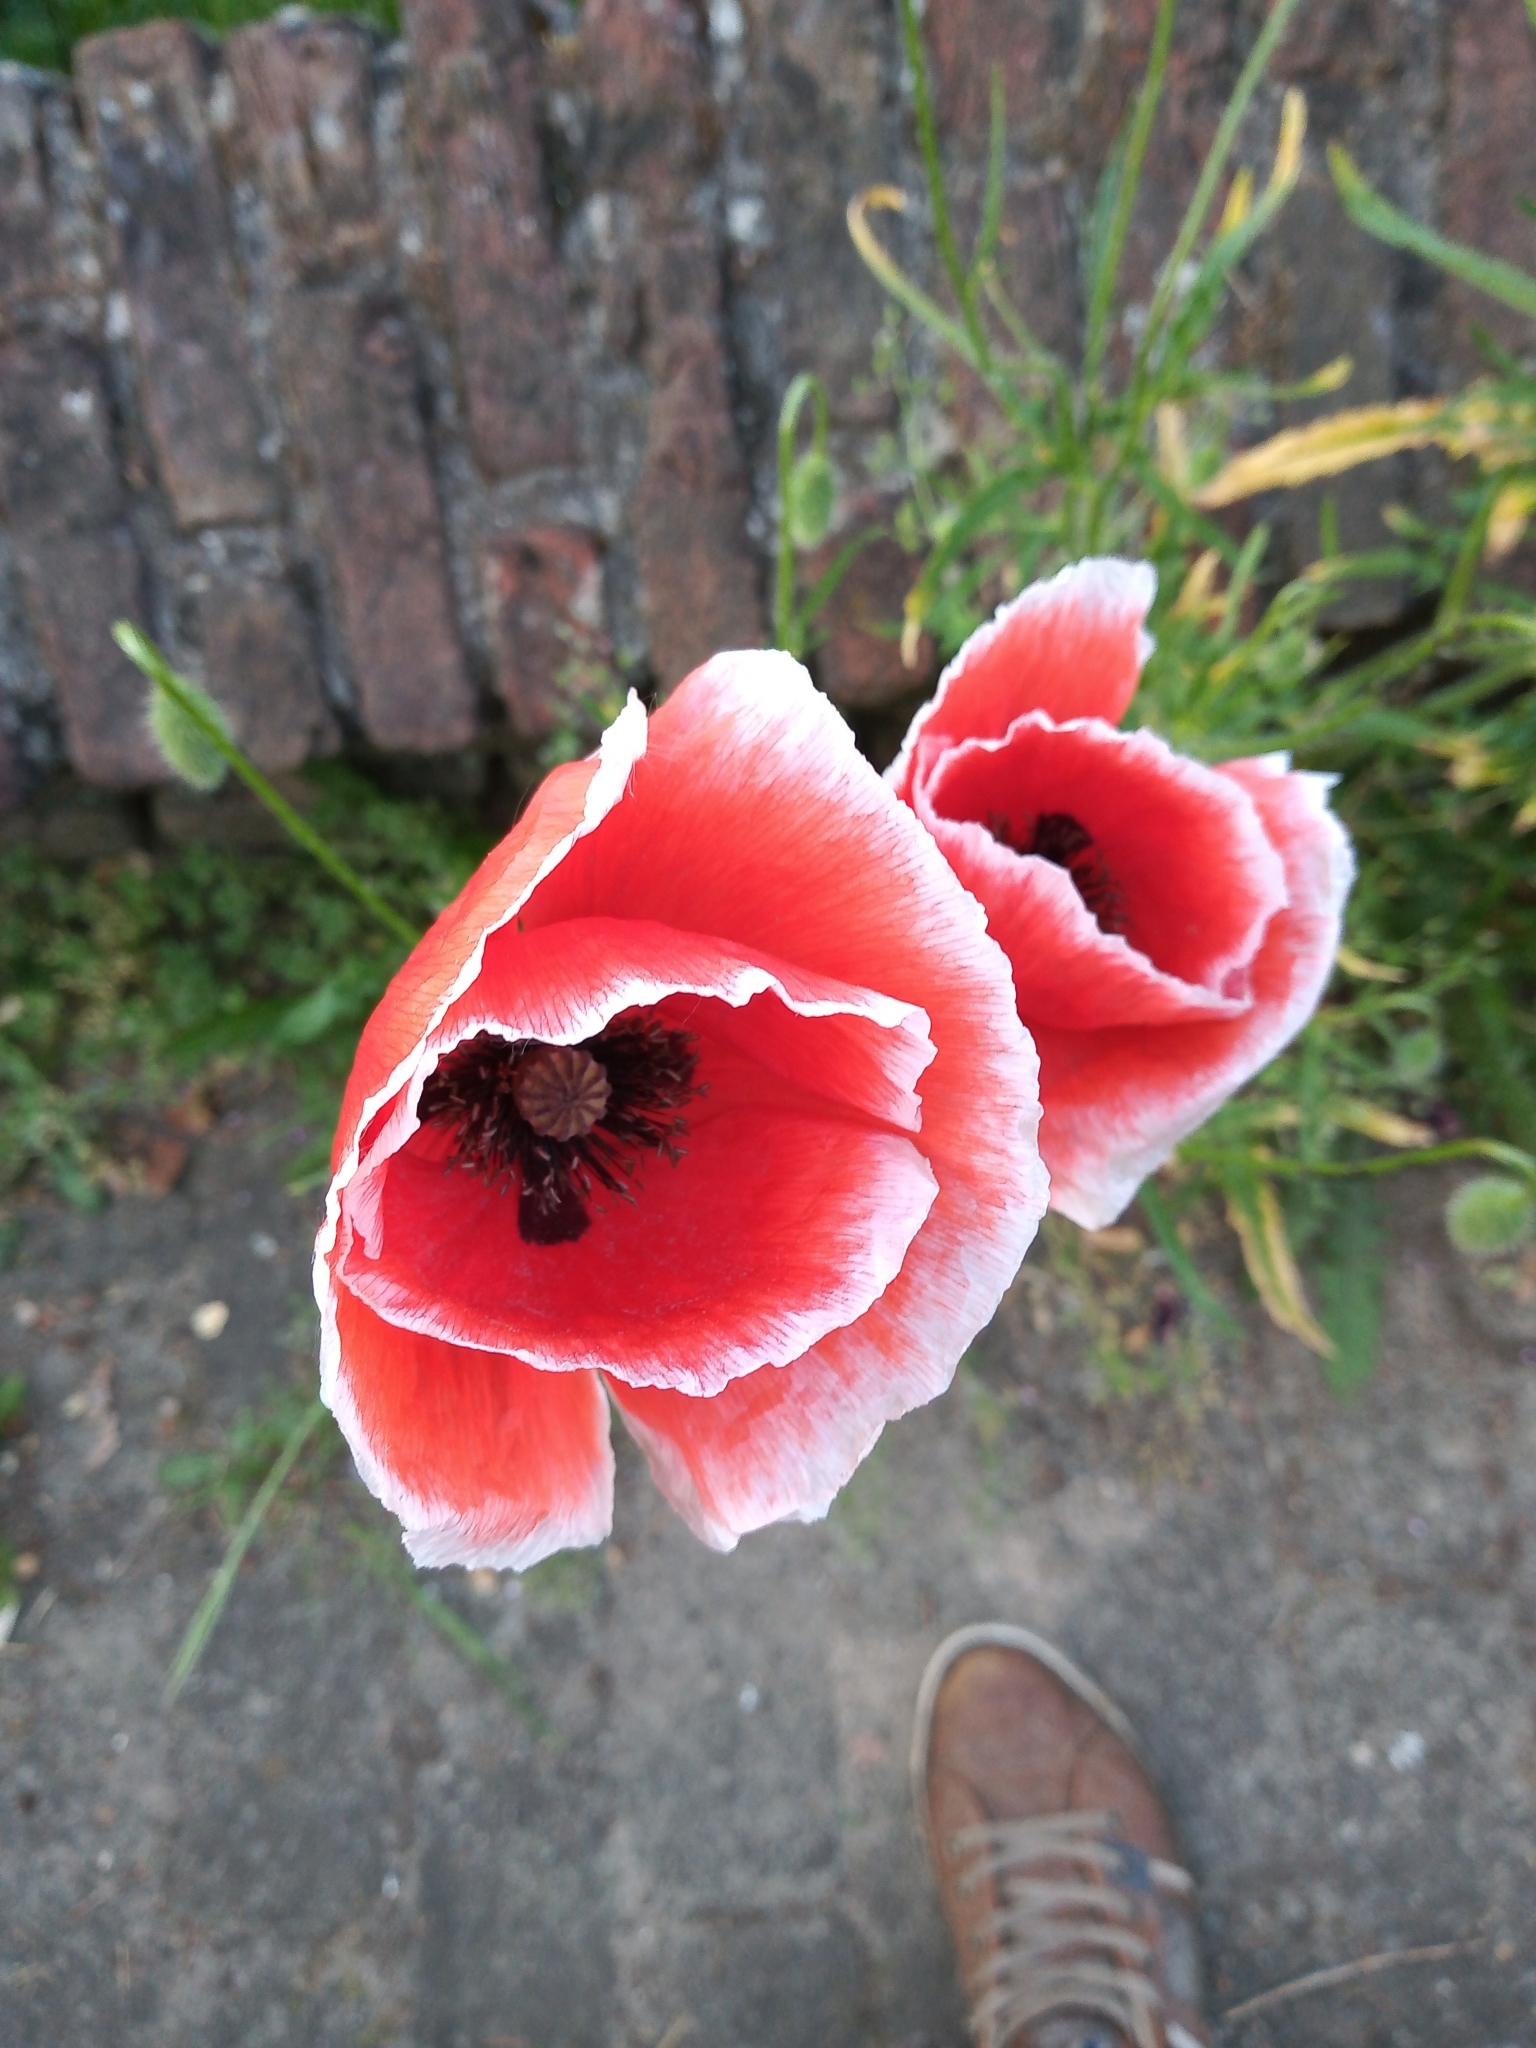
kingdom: Plantae
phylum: Tracheophyta
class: Magnoliopsida
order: Ranunculales
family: Papaveraceae
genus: Papaver
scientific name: Papaver rhoeas
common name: Corn poppy
